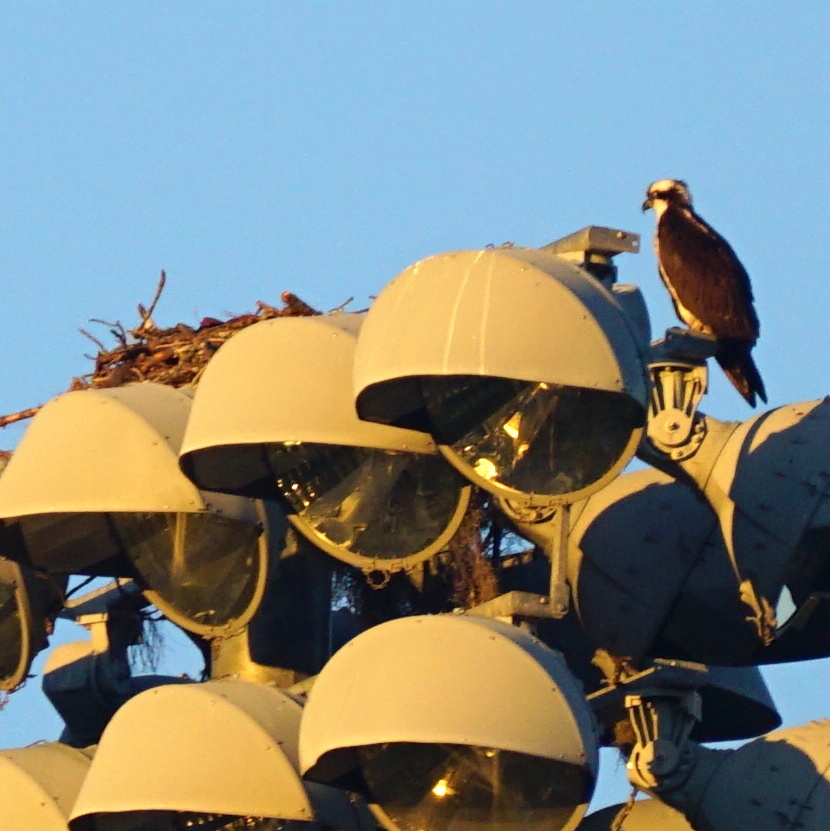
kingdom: Animalia
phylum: Chordata
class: Aves
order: Accipitriformes
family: Pandionidae
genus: Pandion
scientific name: Pandion haliaetus
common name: Osprey
